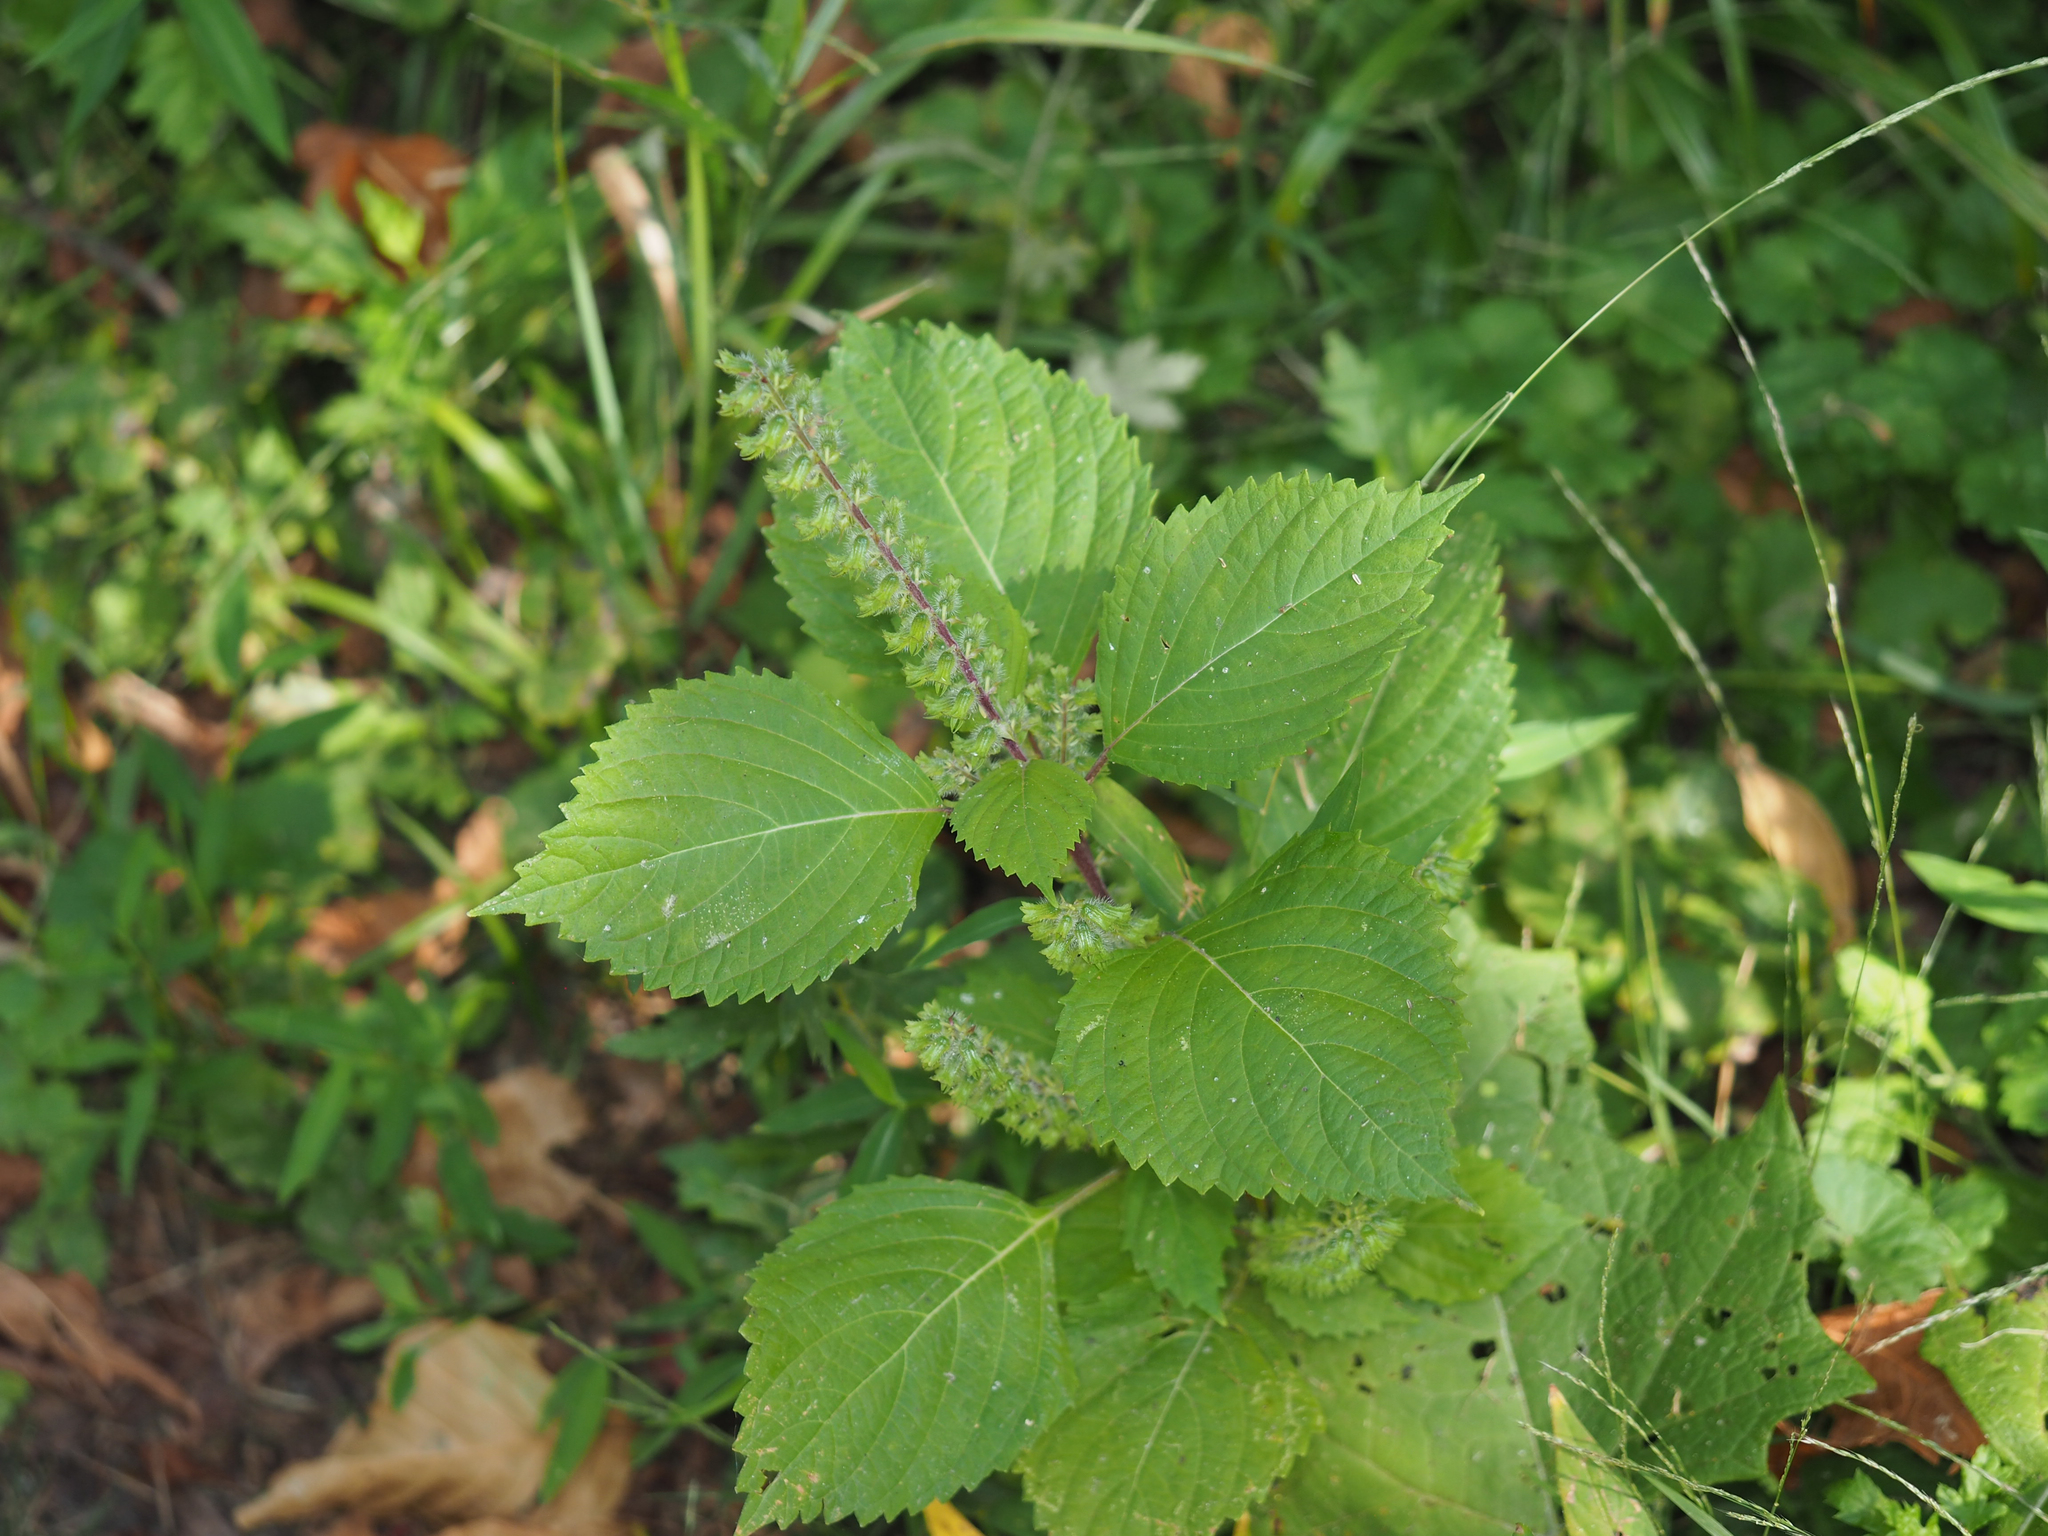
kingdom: Plantae
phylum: Tracheophyta
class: Magnoliopsida
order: Lamiales
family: Lamiaceae
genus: Perilla
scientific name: Perilla frutescens
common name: Perilla
